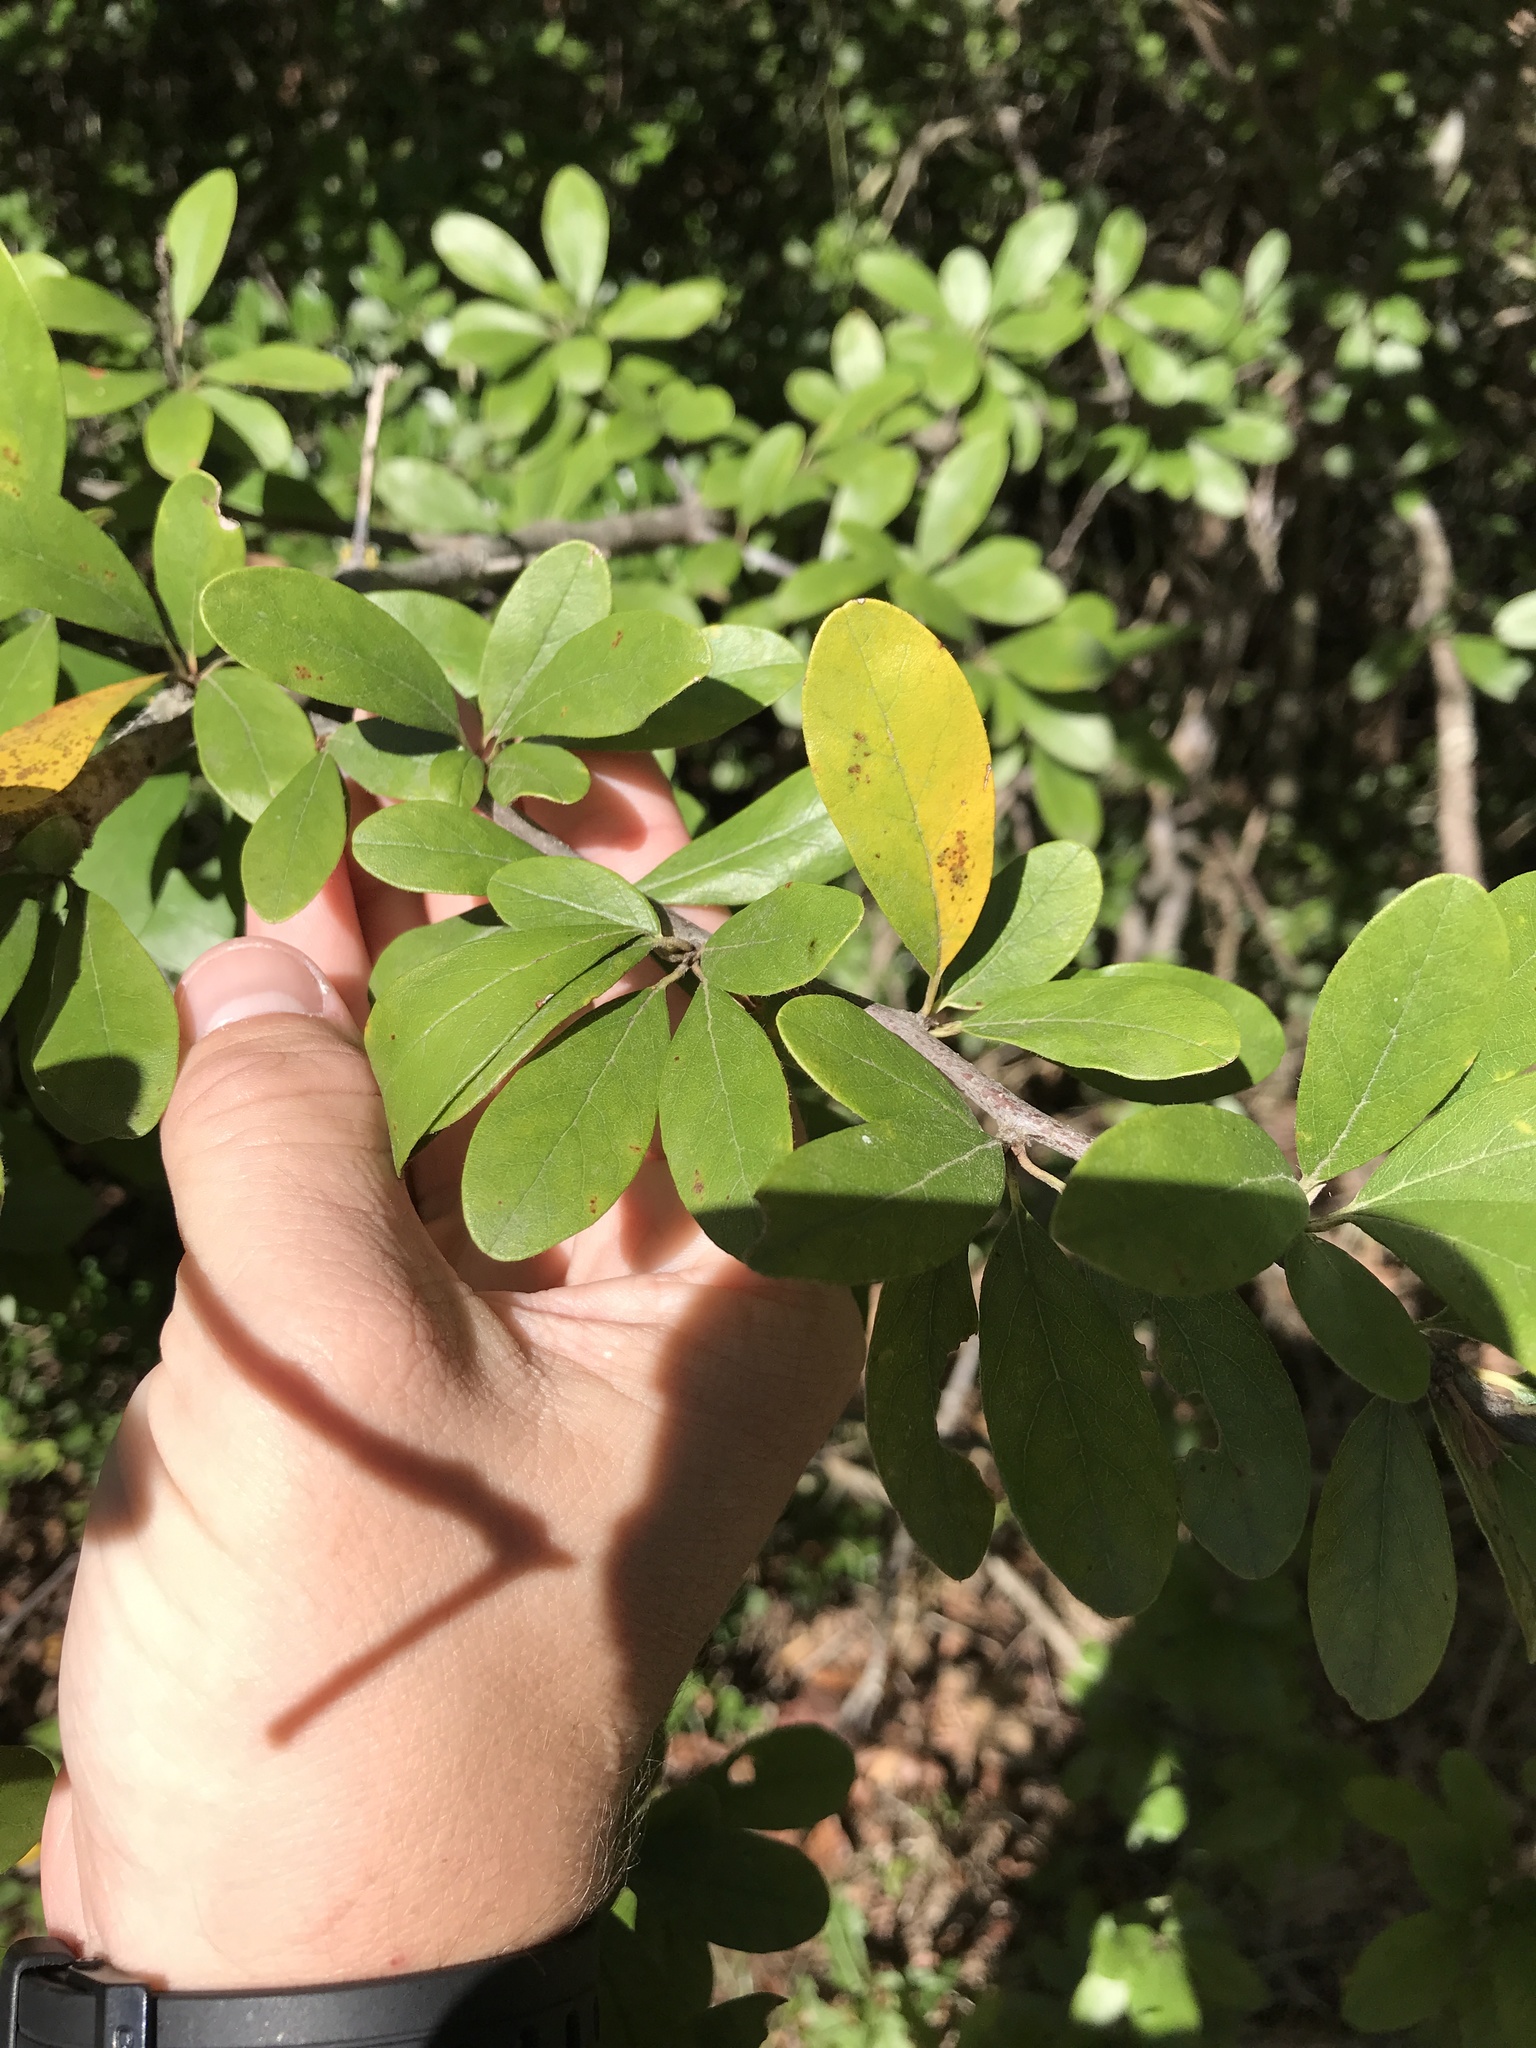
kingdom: Plantae
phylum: Tracheophyta
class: Magnoliopsida
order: Ericales
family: Sapotaceae
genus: Sideroxylon
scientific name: Sideroxylon lanuginosum
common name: Chittamwood
